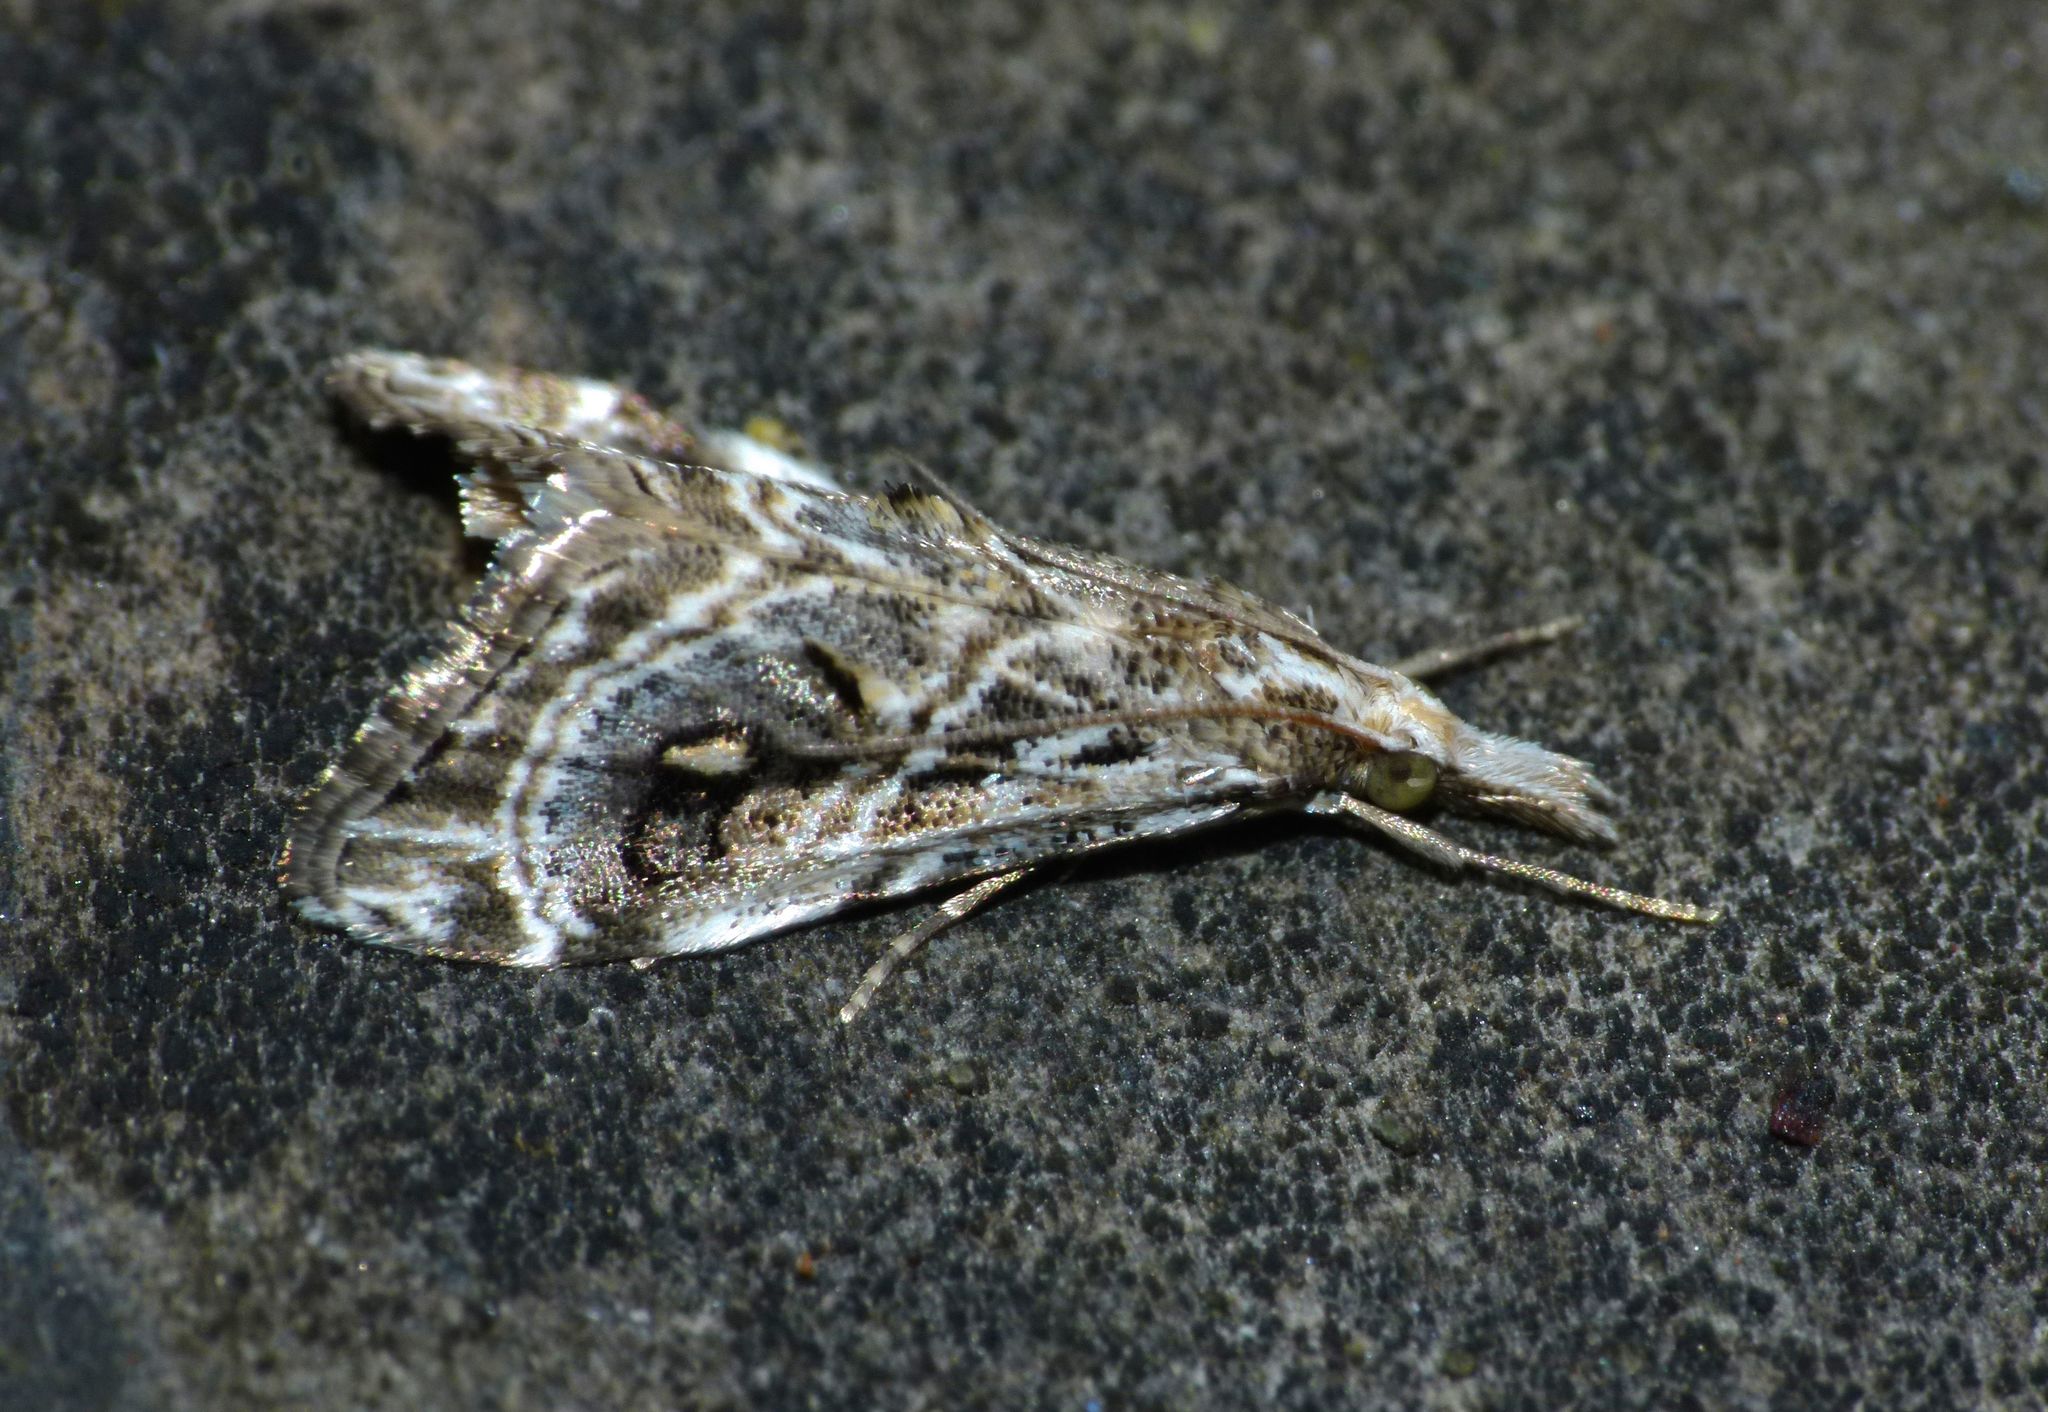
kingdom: Animalia
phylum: Arthropoda
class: Insecta
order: Lepidoptera
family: Crambidae
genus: Gadira
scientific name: Gadira acerella
